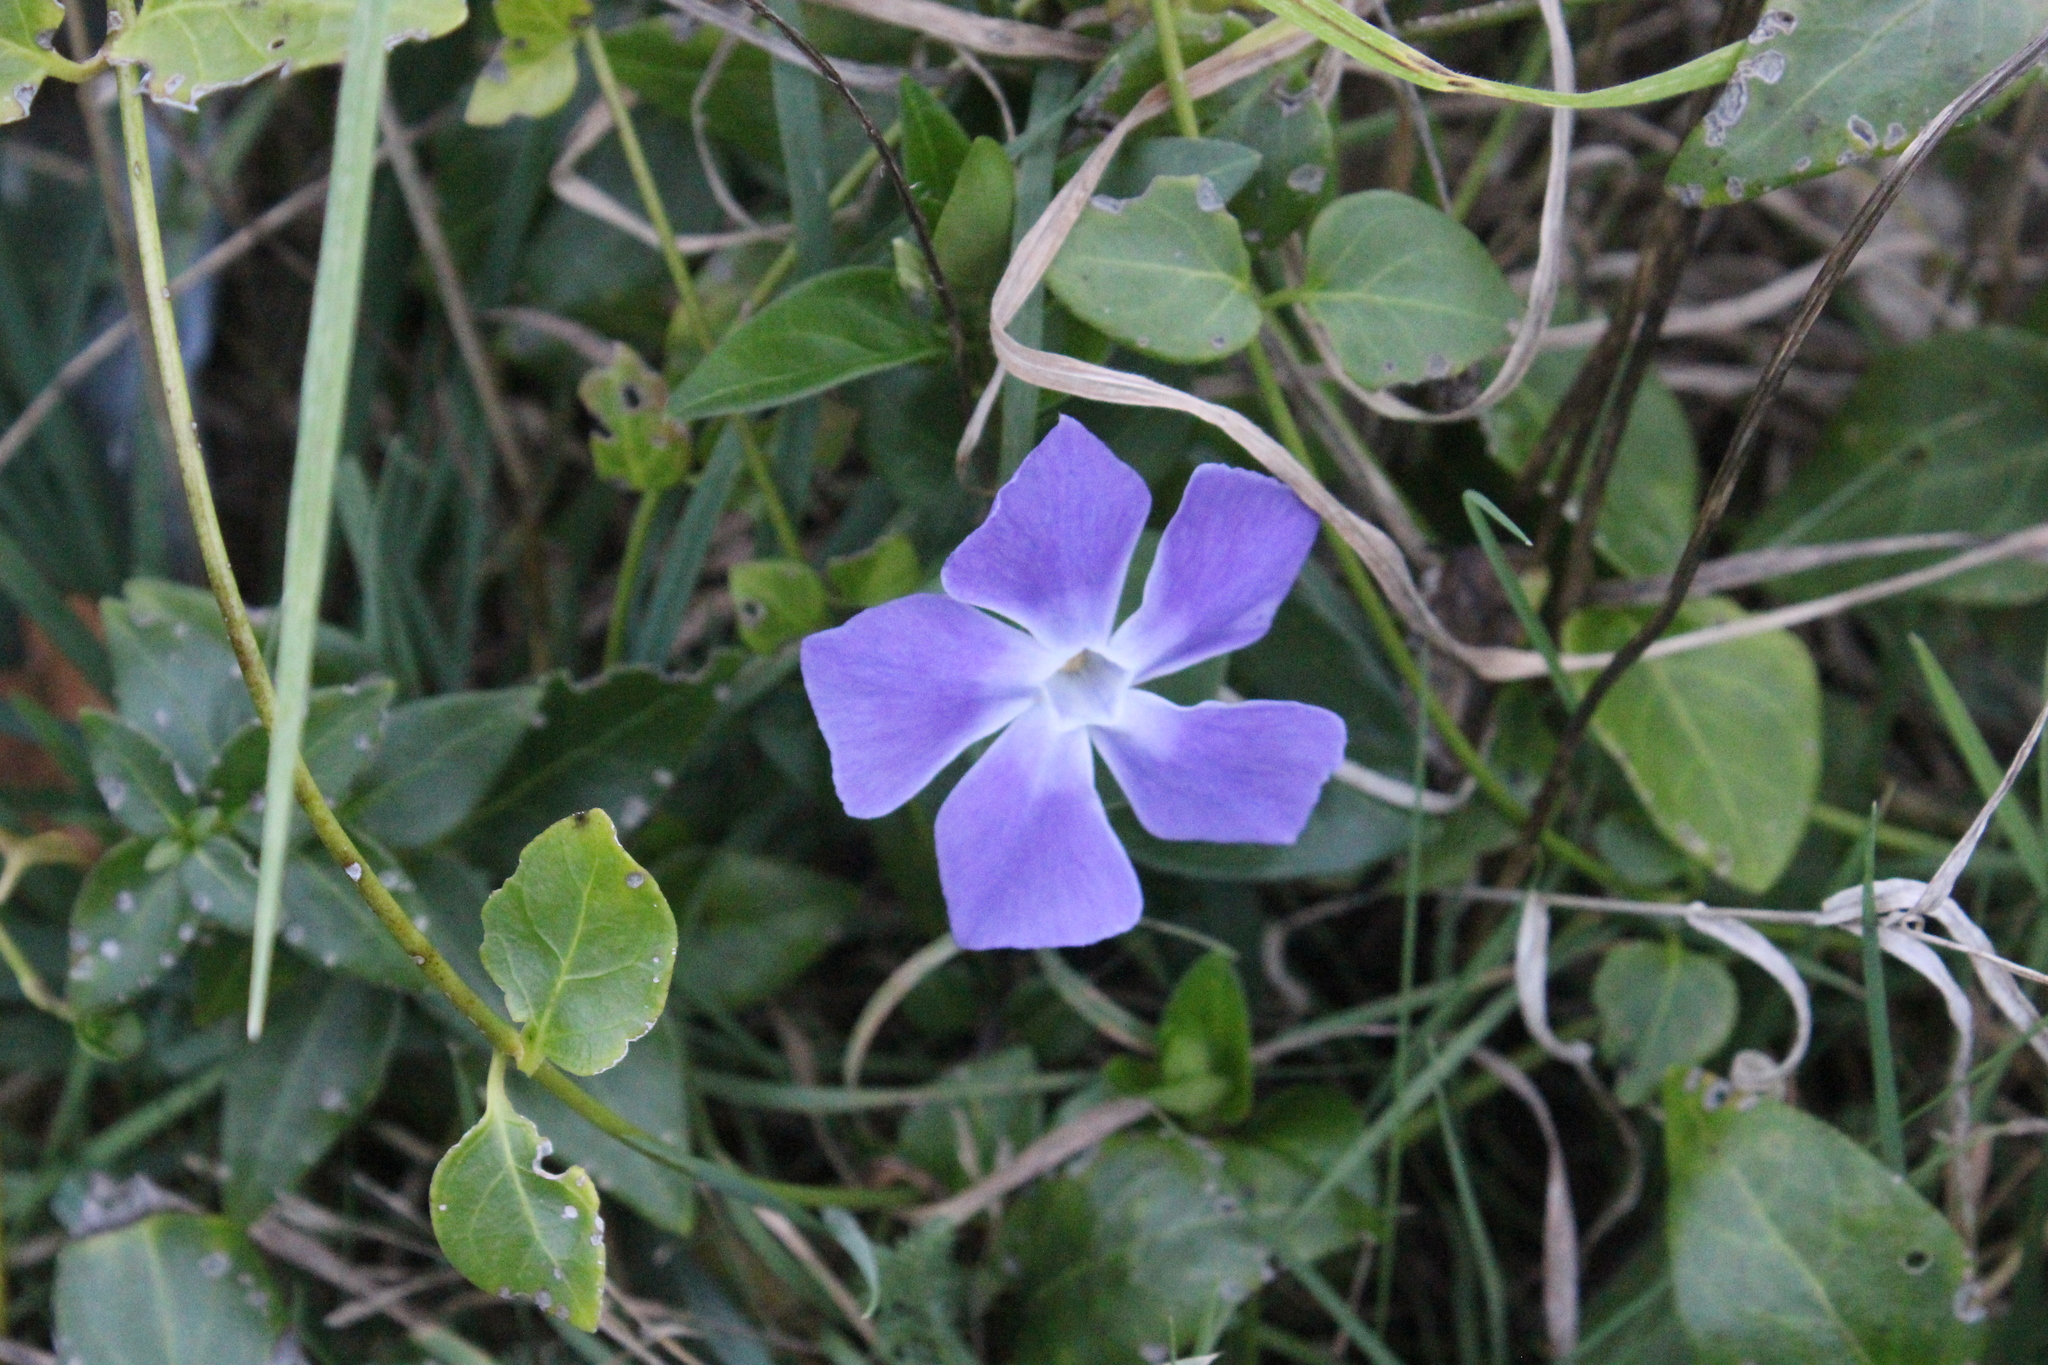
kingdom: Plantae
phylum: Tracheophyta
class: Magnoliopsida
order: Gentianales
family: Apocynaceae
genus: Vinca
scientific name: Vinca major
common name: Greater periwinkle
